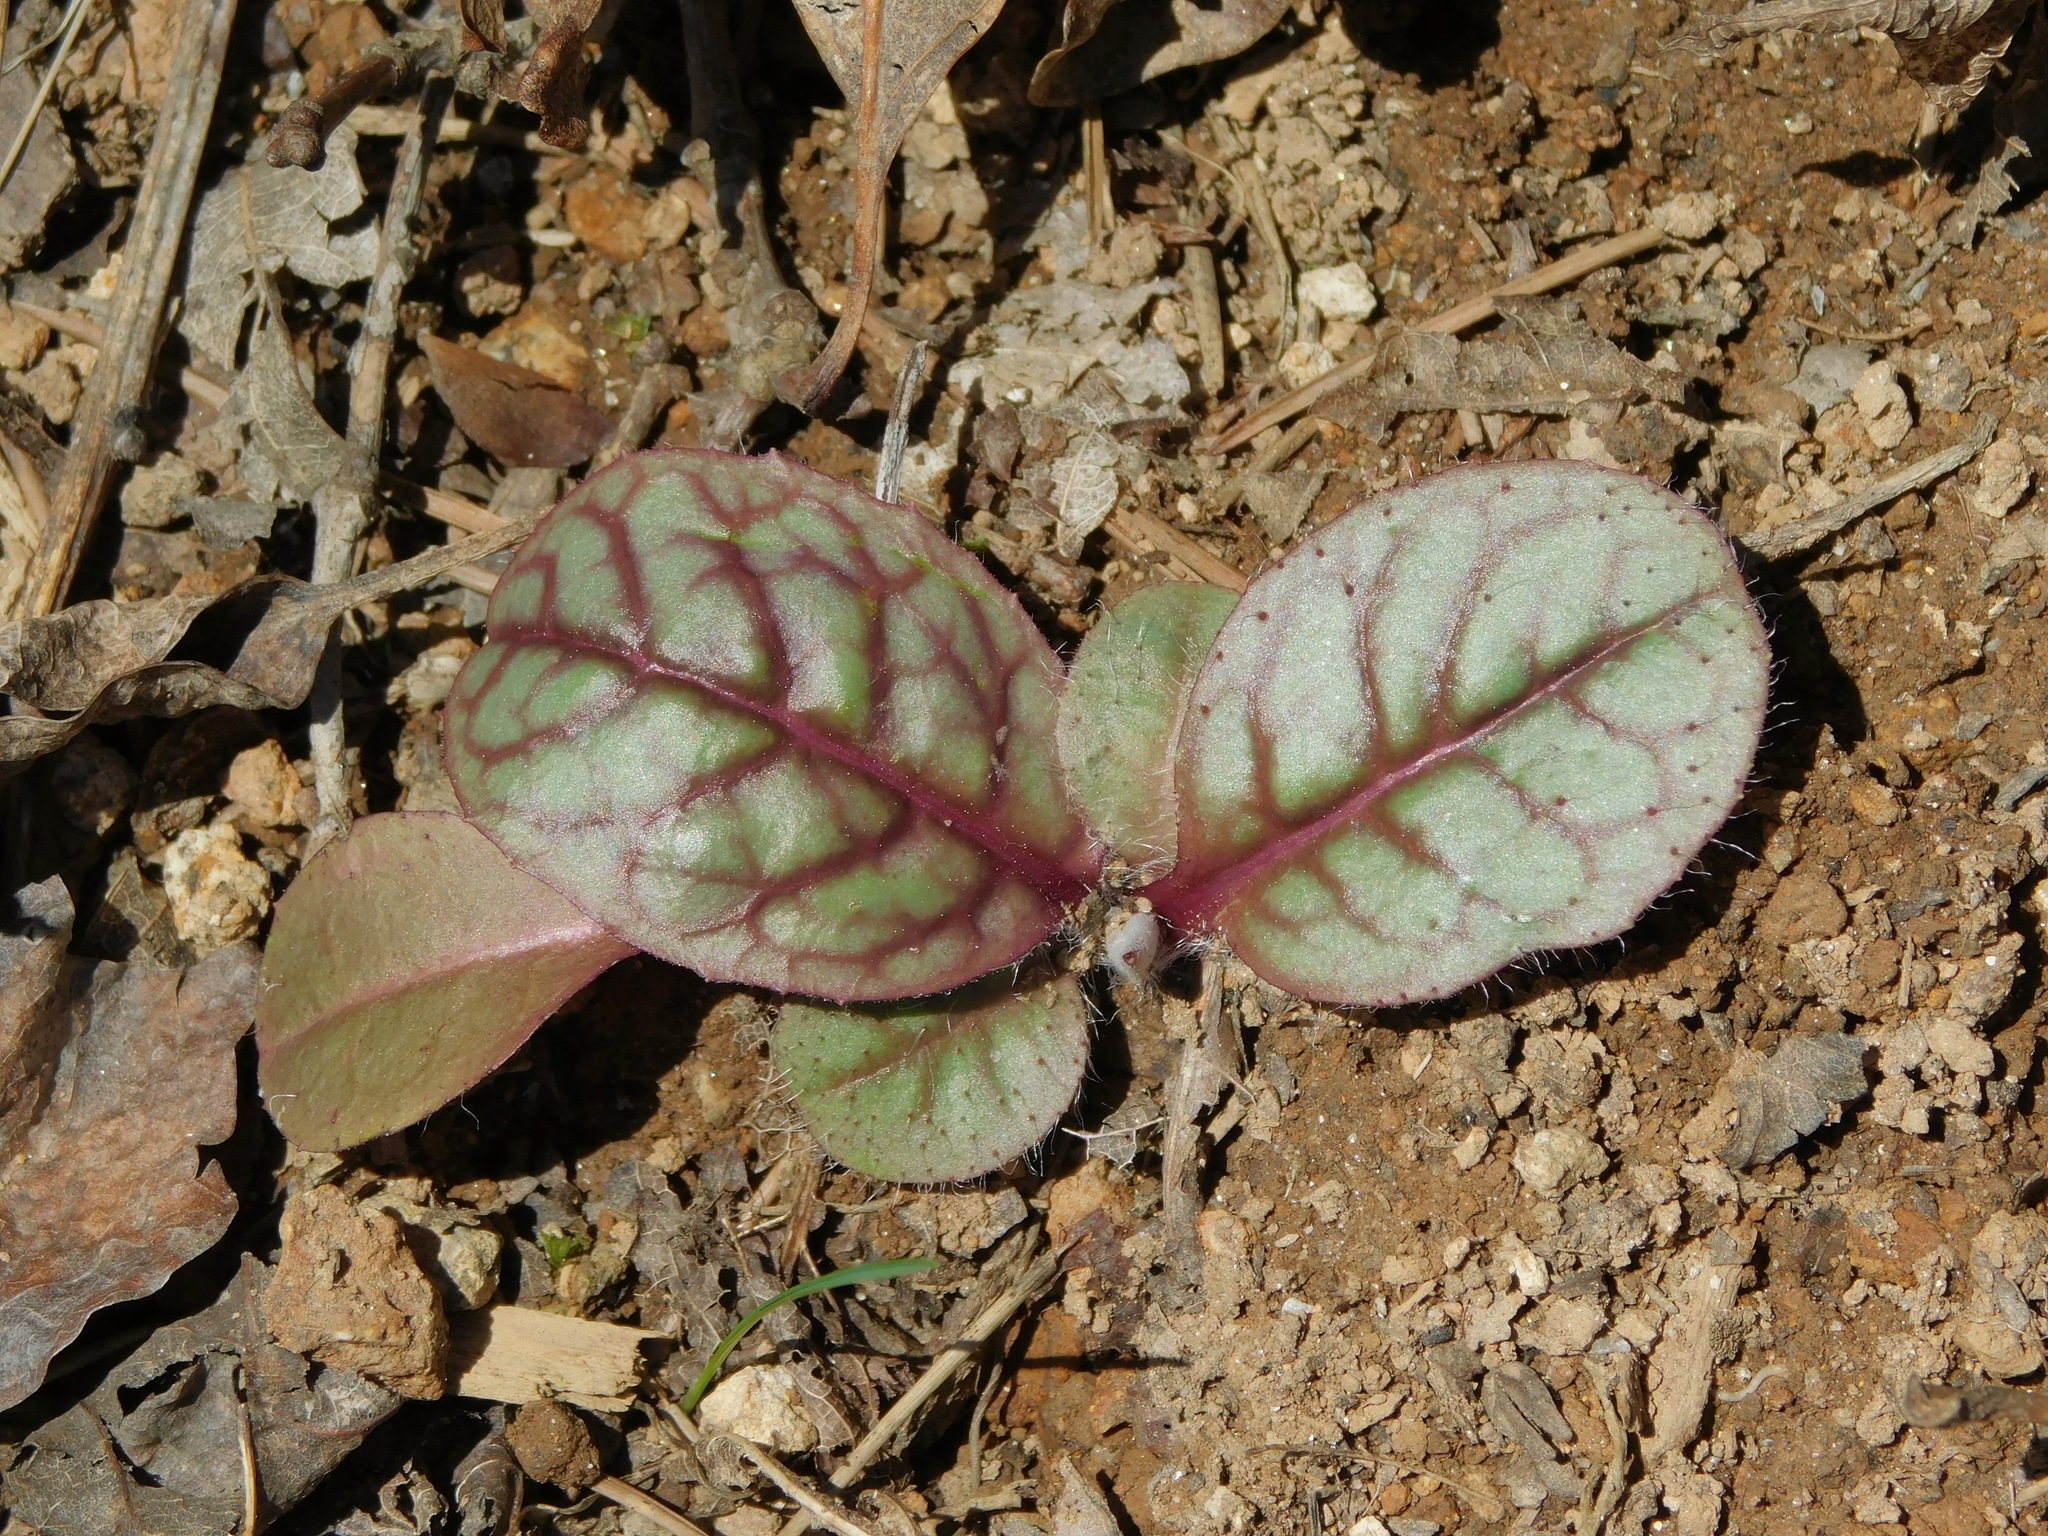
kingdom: Plantae
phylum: Tracheophyta
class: Magnoliopsida
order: Asterales
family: Asteraceae
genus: Hieracium
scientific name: Hieracium venosum
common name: Rattlesnake hawkweed
